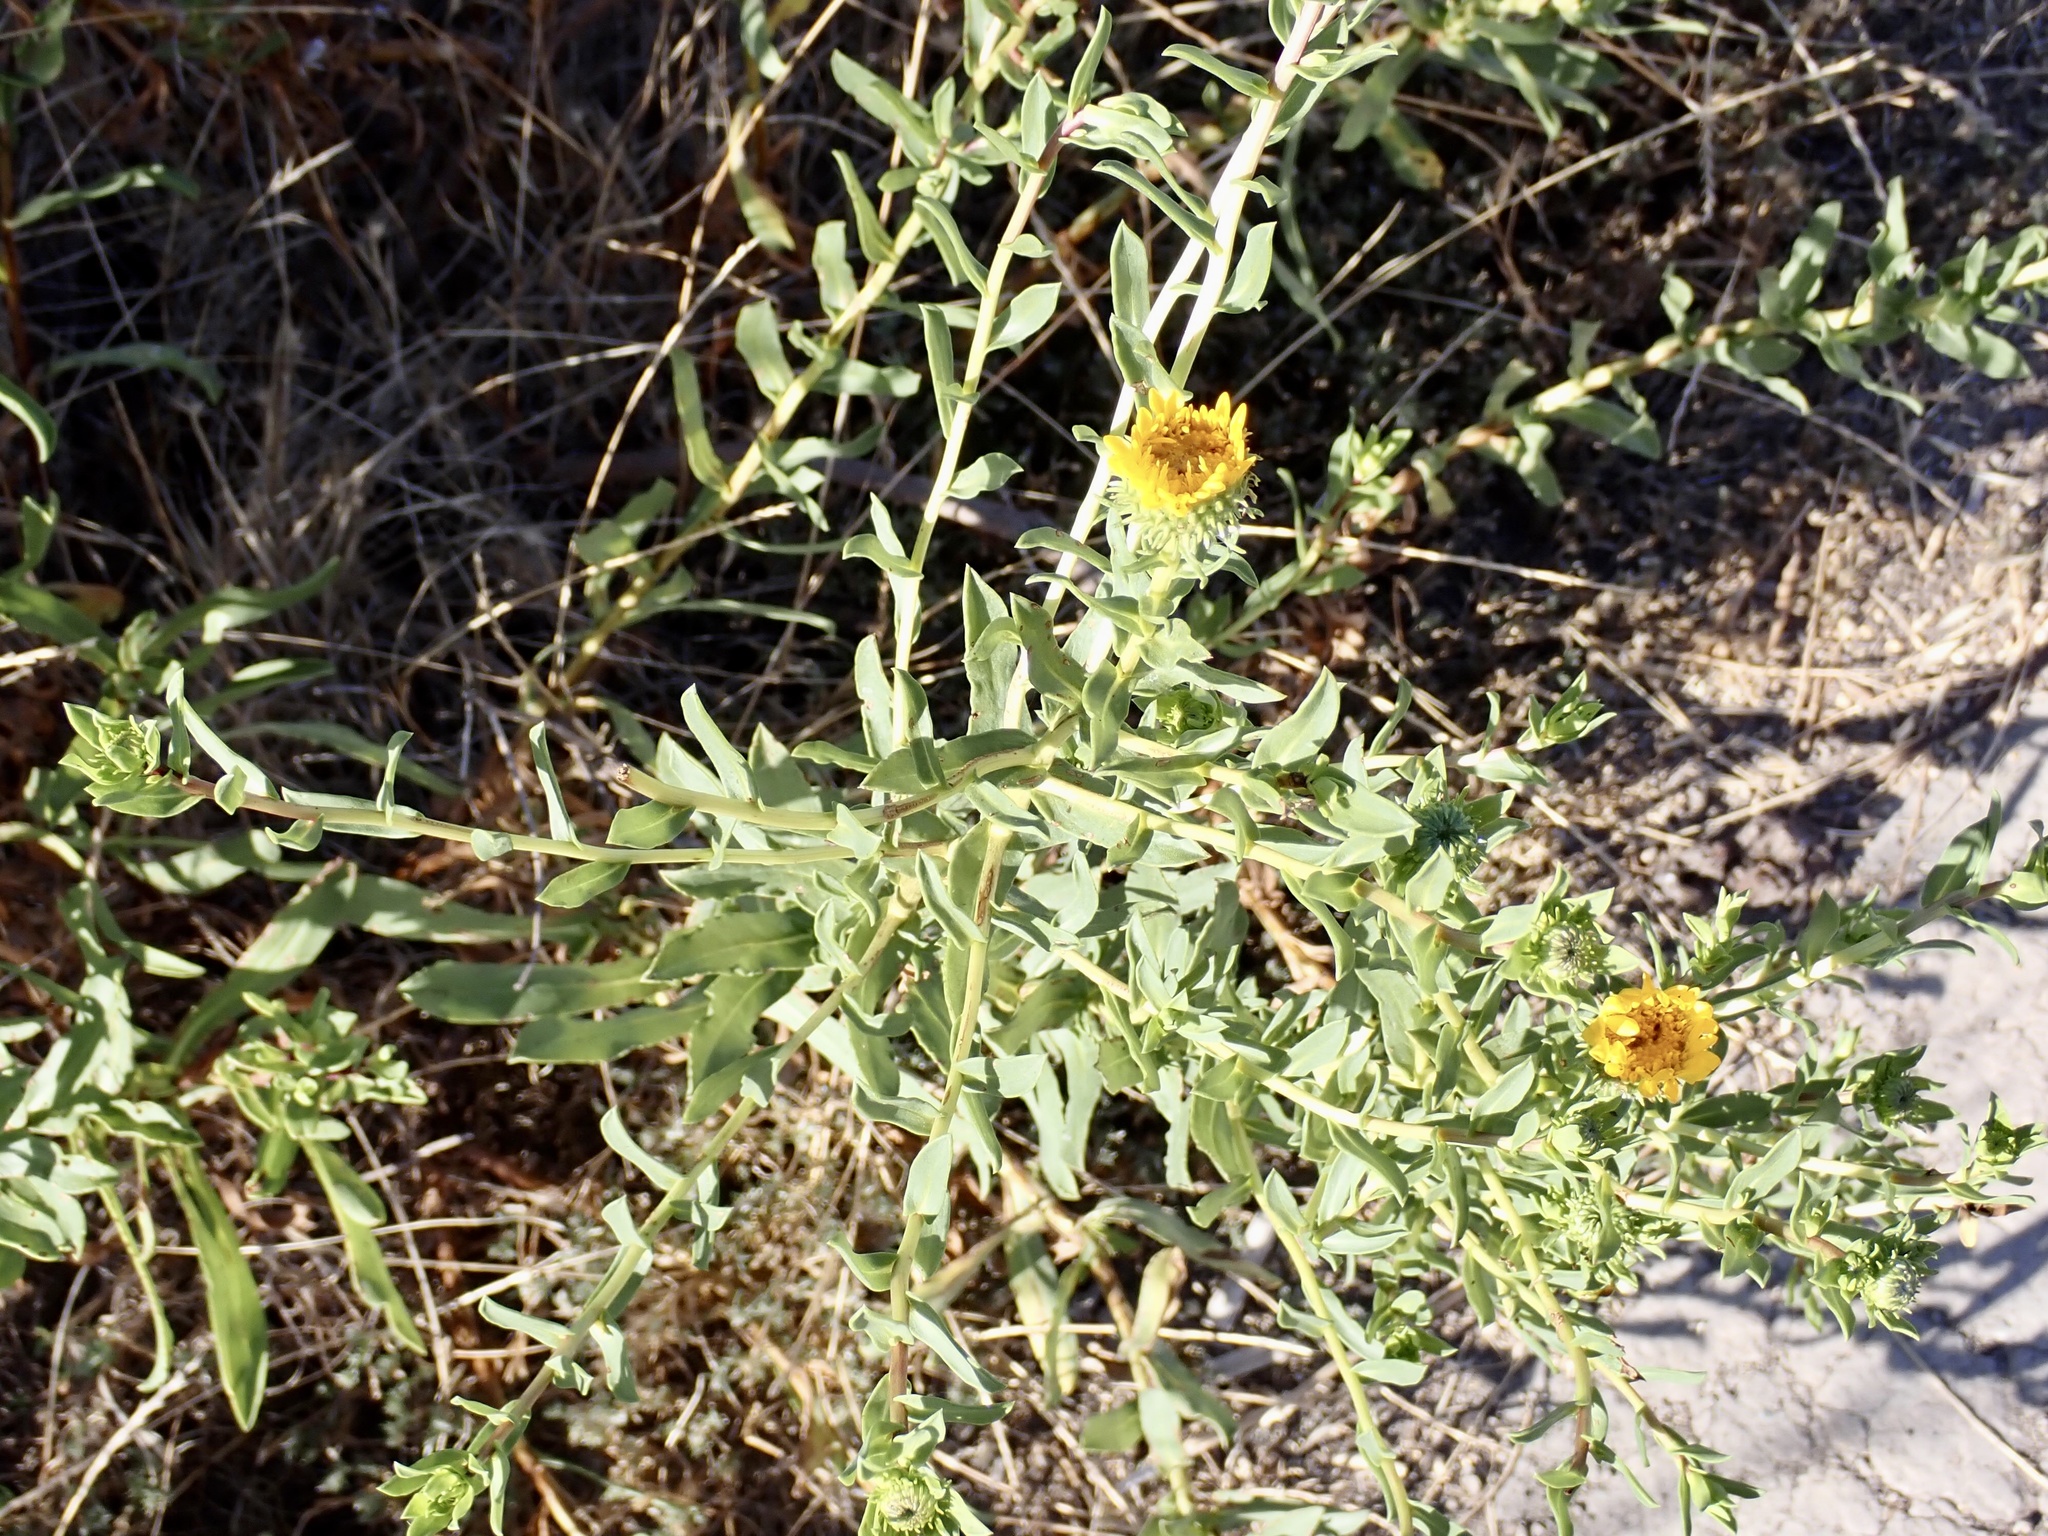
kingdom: Plantae
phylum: Tracheophyta
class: Magnoliopsida
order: Asterales
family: Asteraceae
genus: Grindelia
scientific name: Grindelia hirsutula
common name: Hairy gumweed
